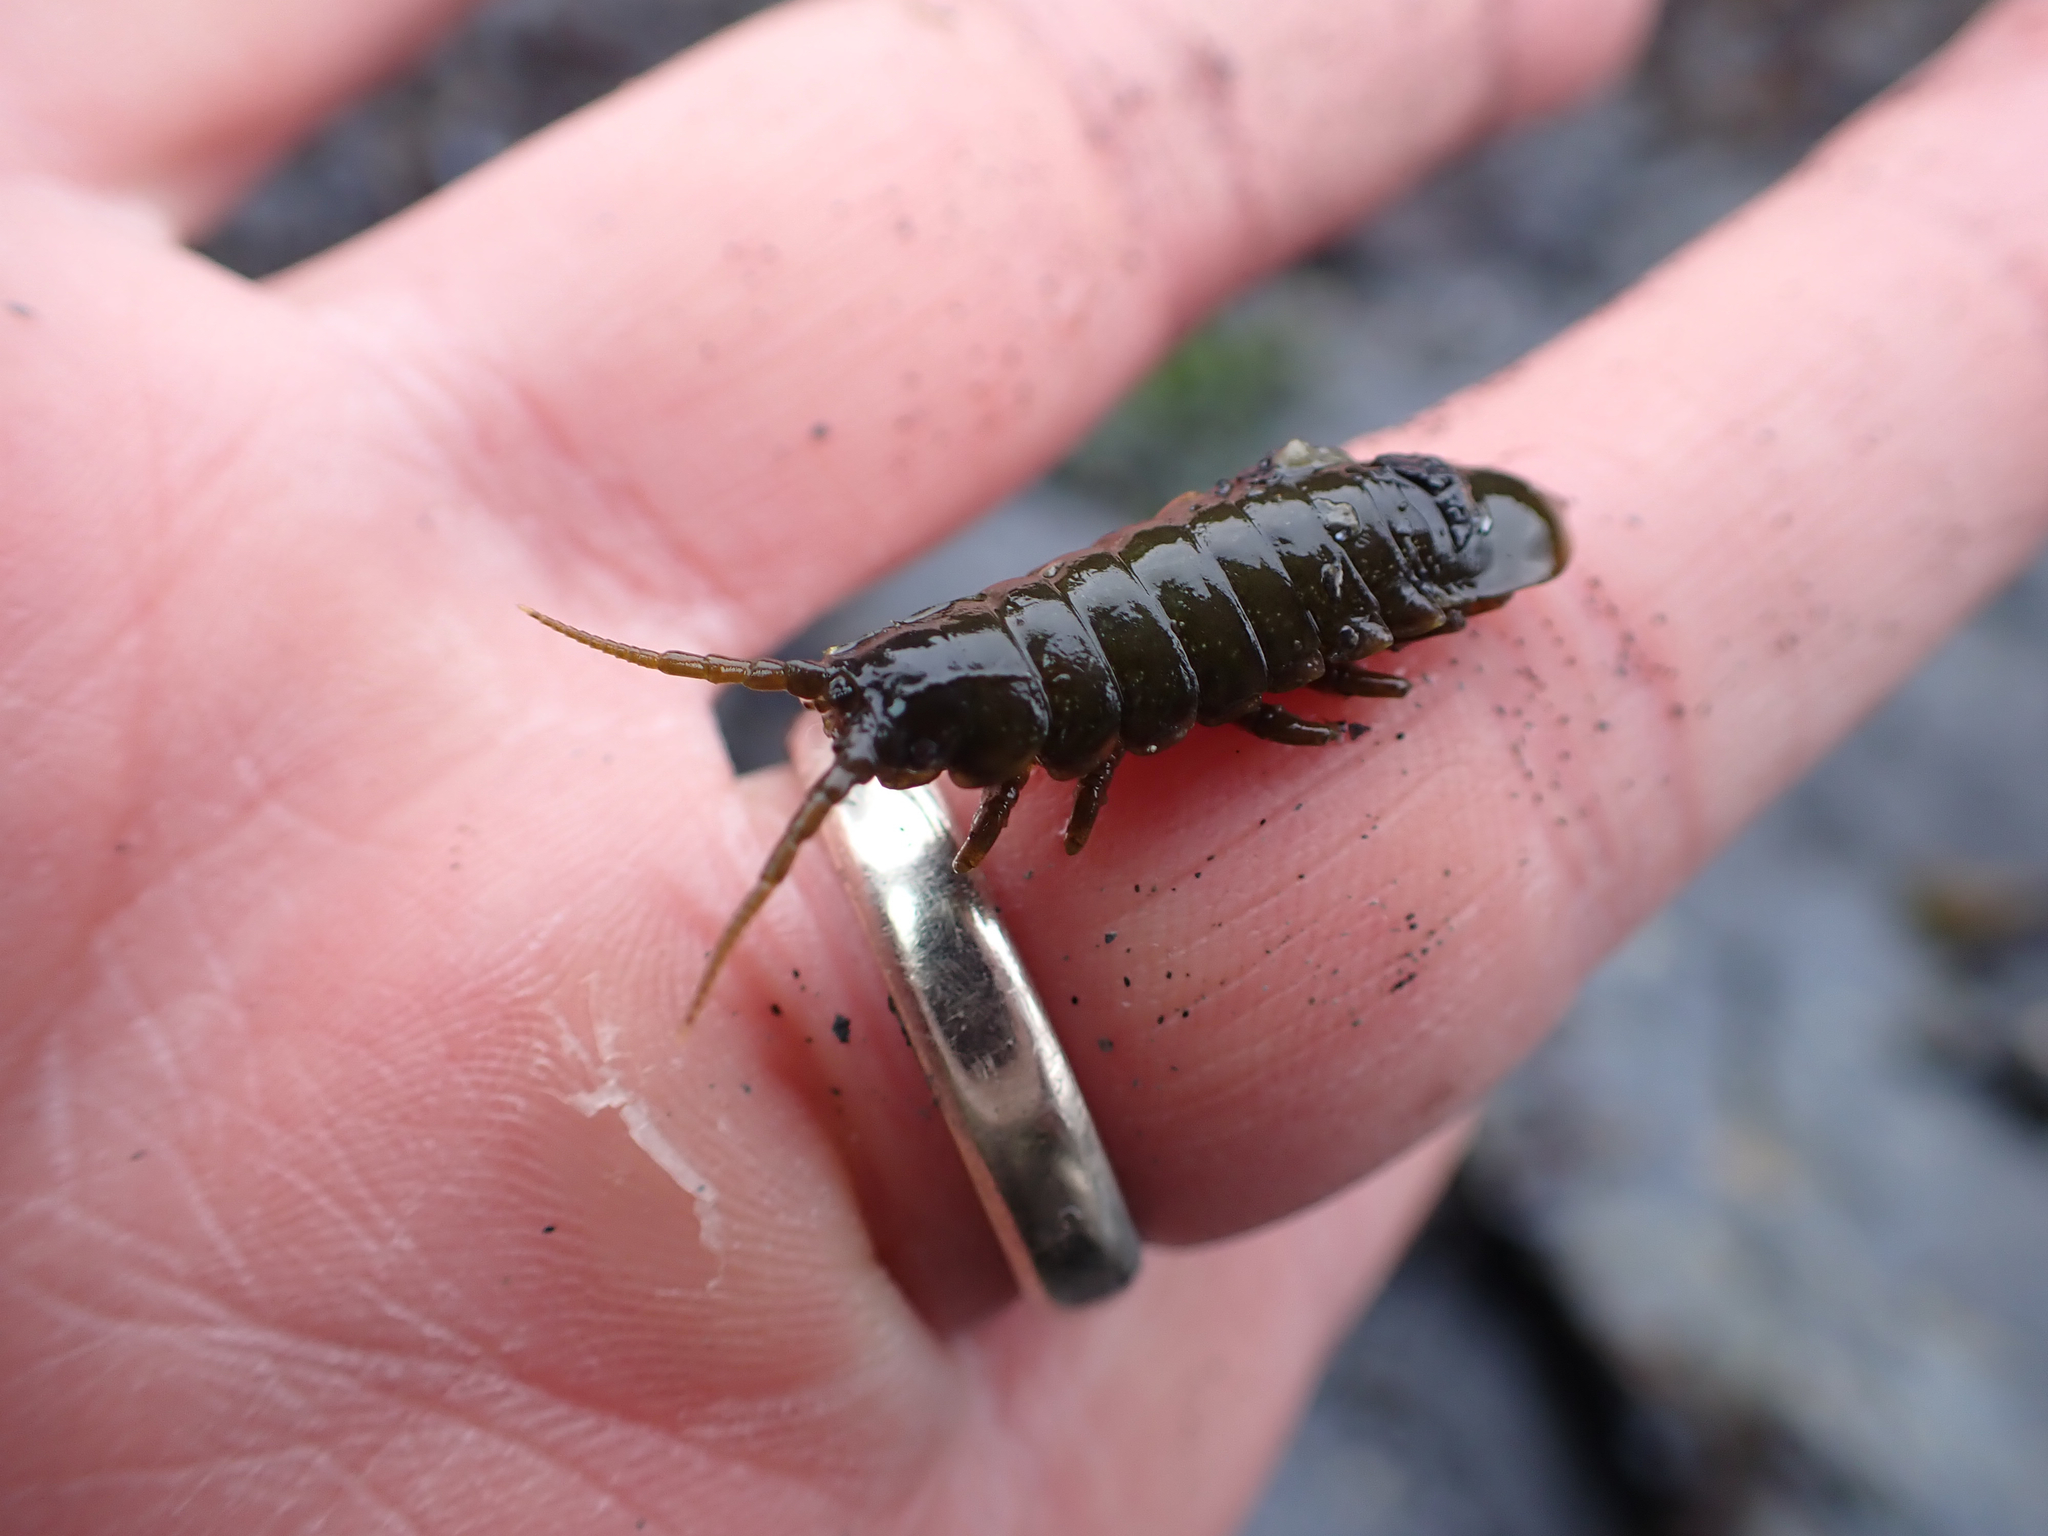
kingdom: Animalia
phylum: Arthropoda
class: Malacostraca
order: Isopoda
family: Idoteidae
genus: Pentidotea
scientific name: Pentidotea wosnesenskii
